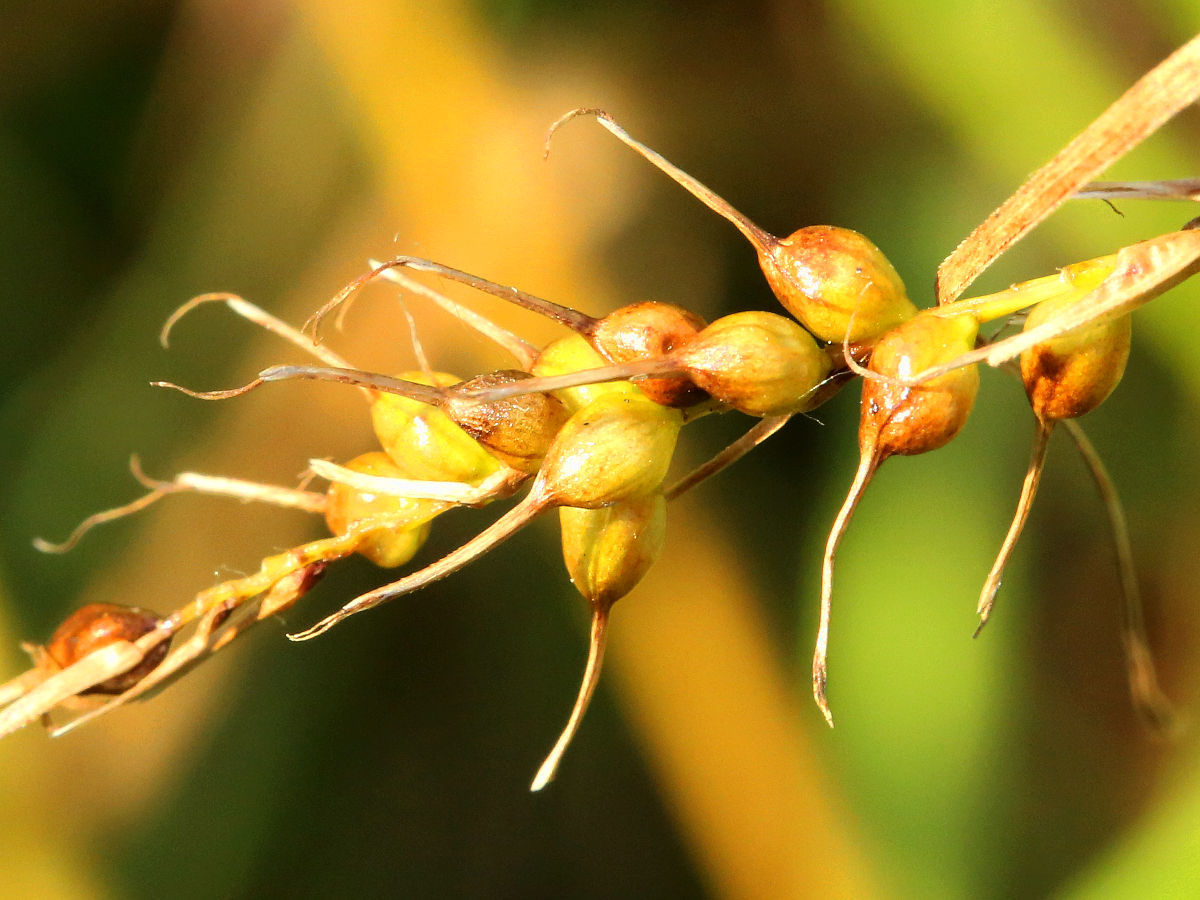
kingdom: Plantae
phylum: Tracheophyta
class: Liliopsida
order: Poales
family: Cyperaceae
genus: Carex
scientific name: Carex sprengelii
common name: Long-beaked sedge
